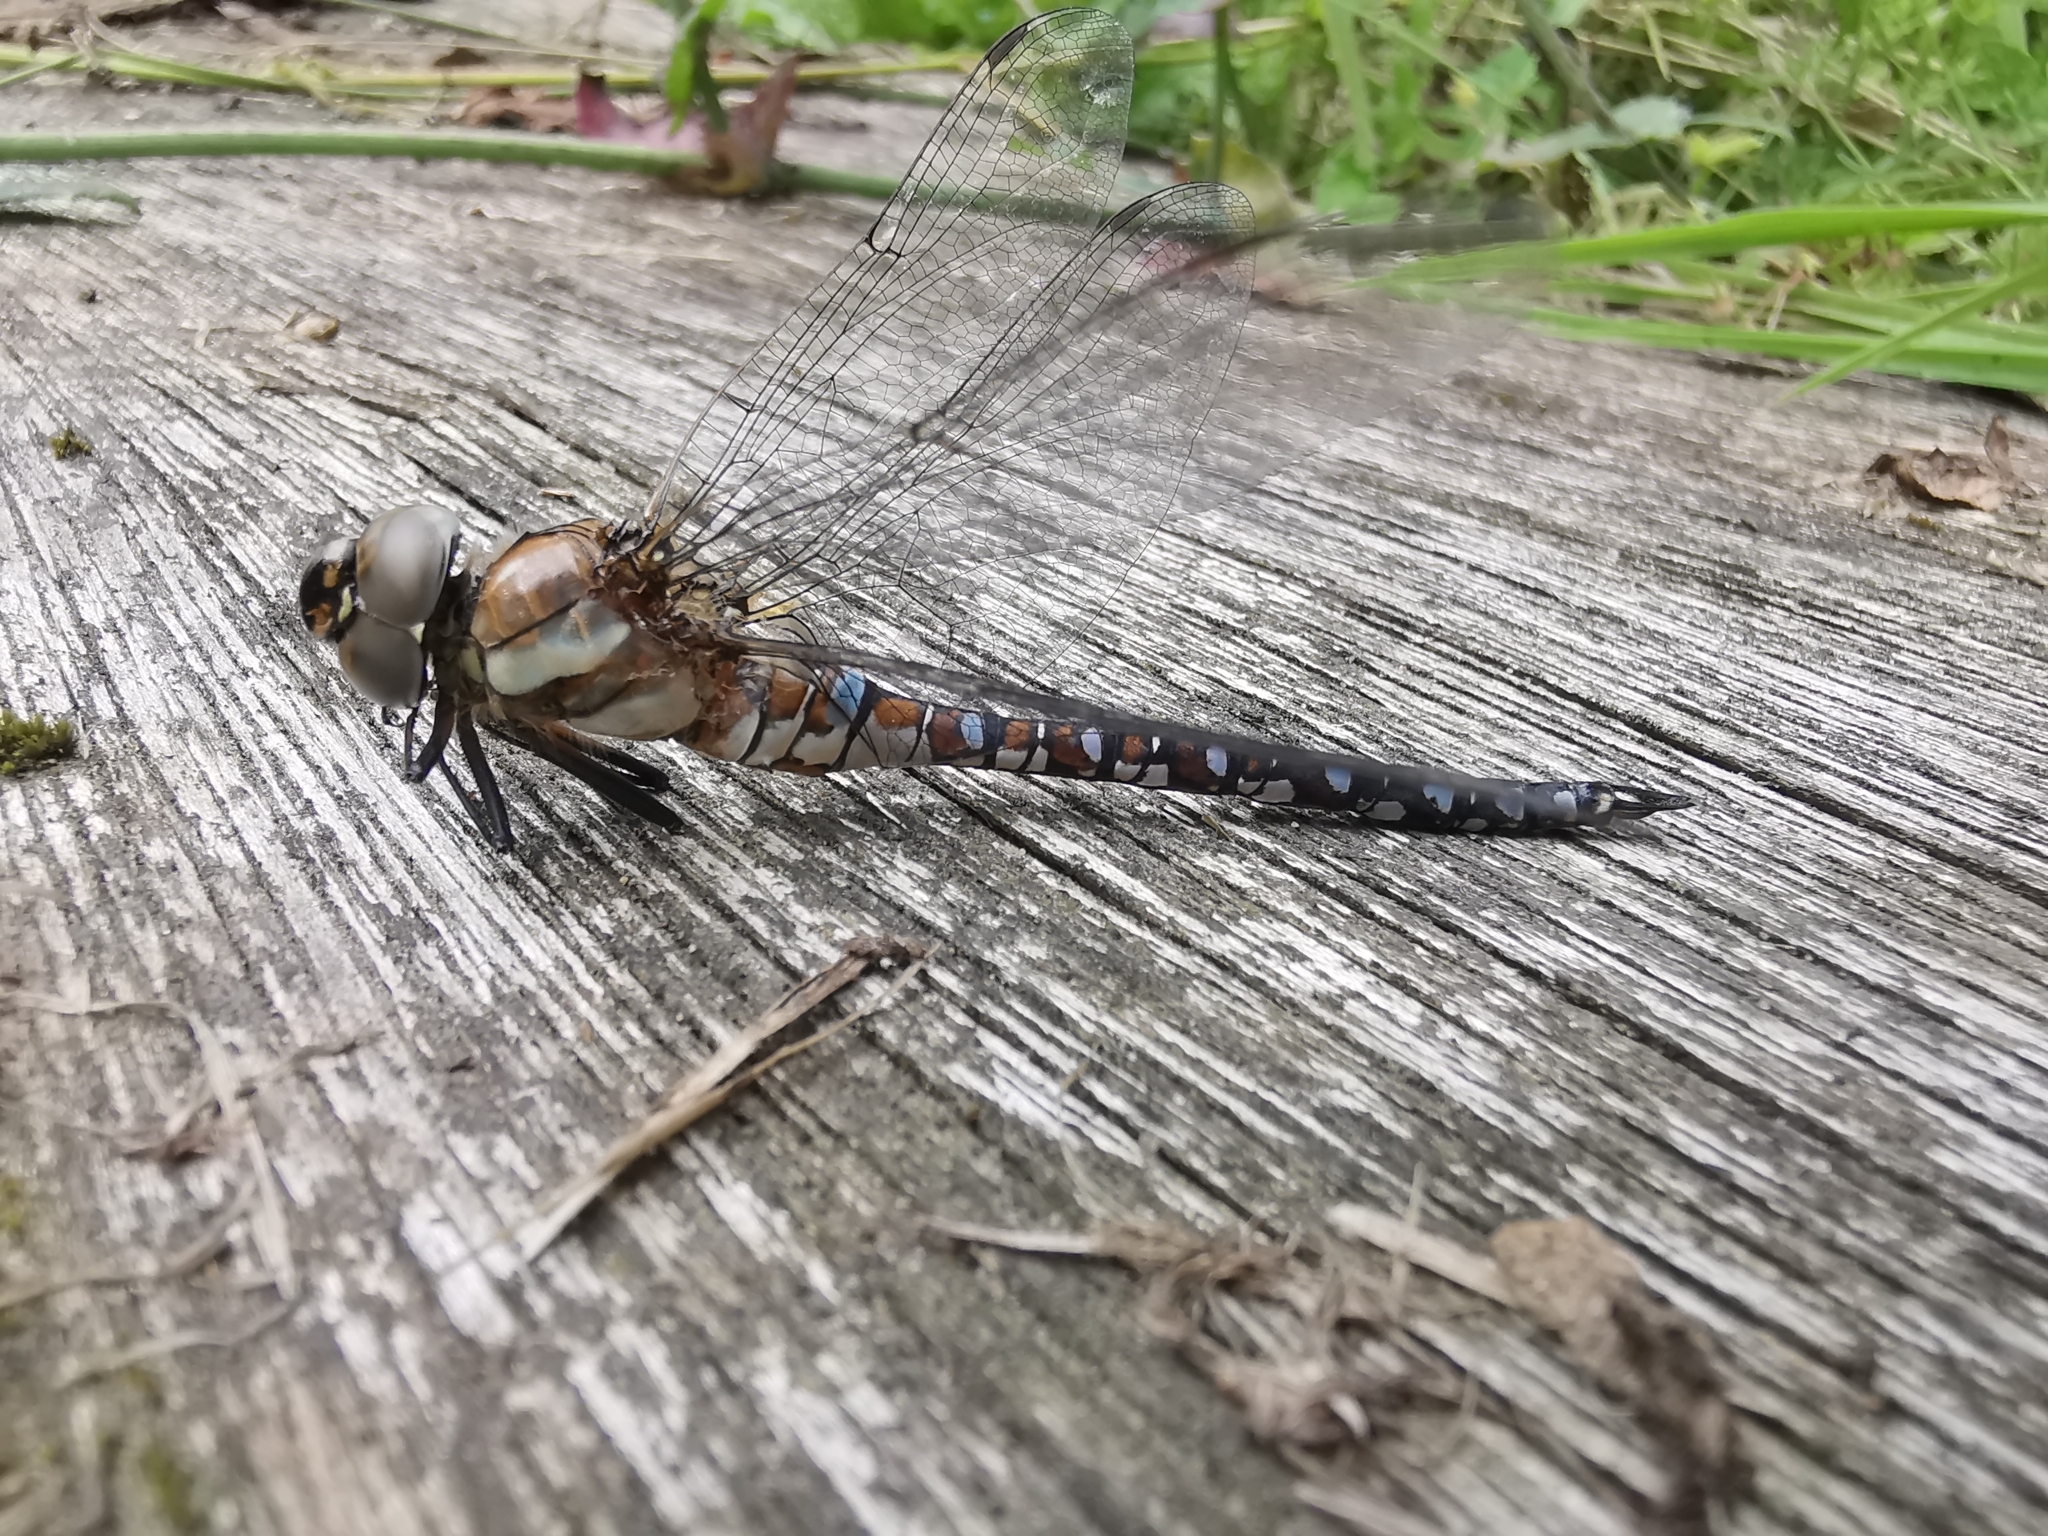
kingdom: Animalia
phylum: Arthropoda
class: Insecta
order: Odonata
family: Aeshnidae
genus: Aeshna
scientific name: Aeshna mixta
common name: Migrant hawker
